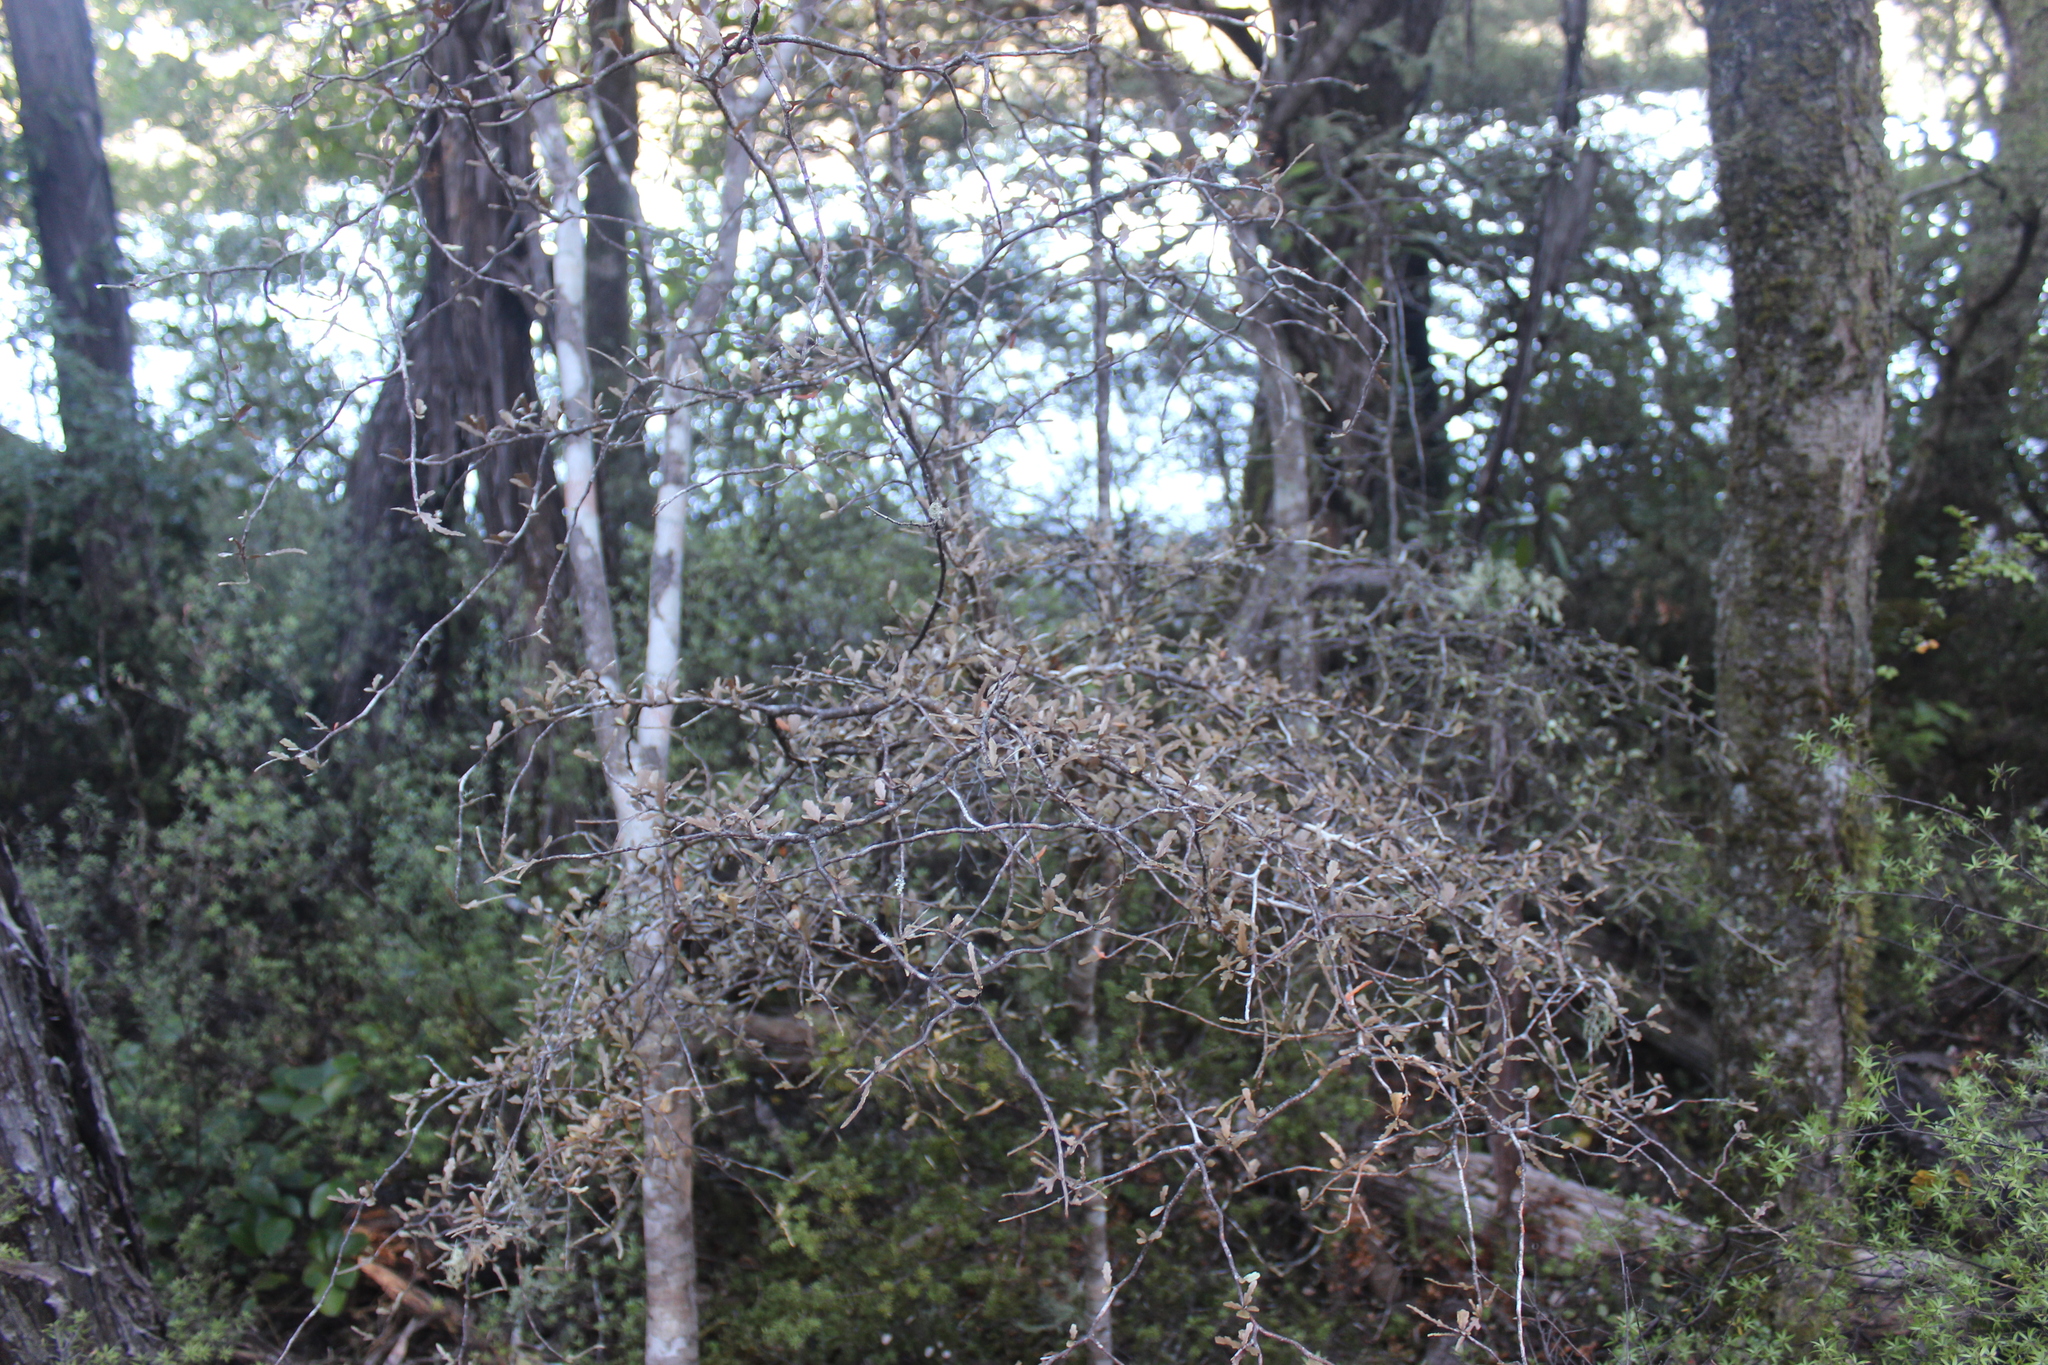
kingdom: Plantae
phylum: Tracheophyta
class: Magnoliopsida
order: Oxalidales
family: Elaeocarpaceae
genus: Elaeocarpus
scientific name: Elaeocarpus hookerianus
